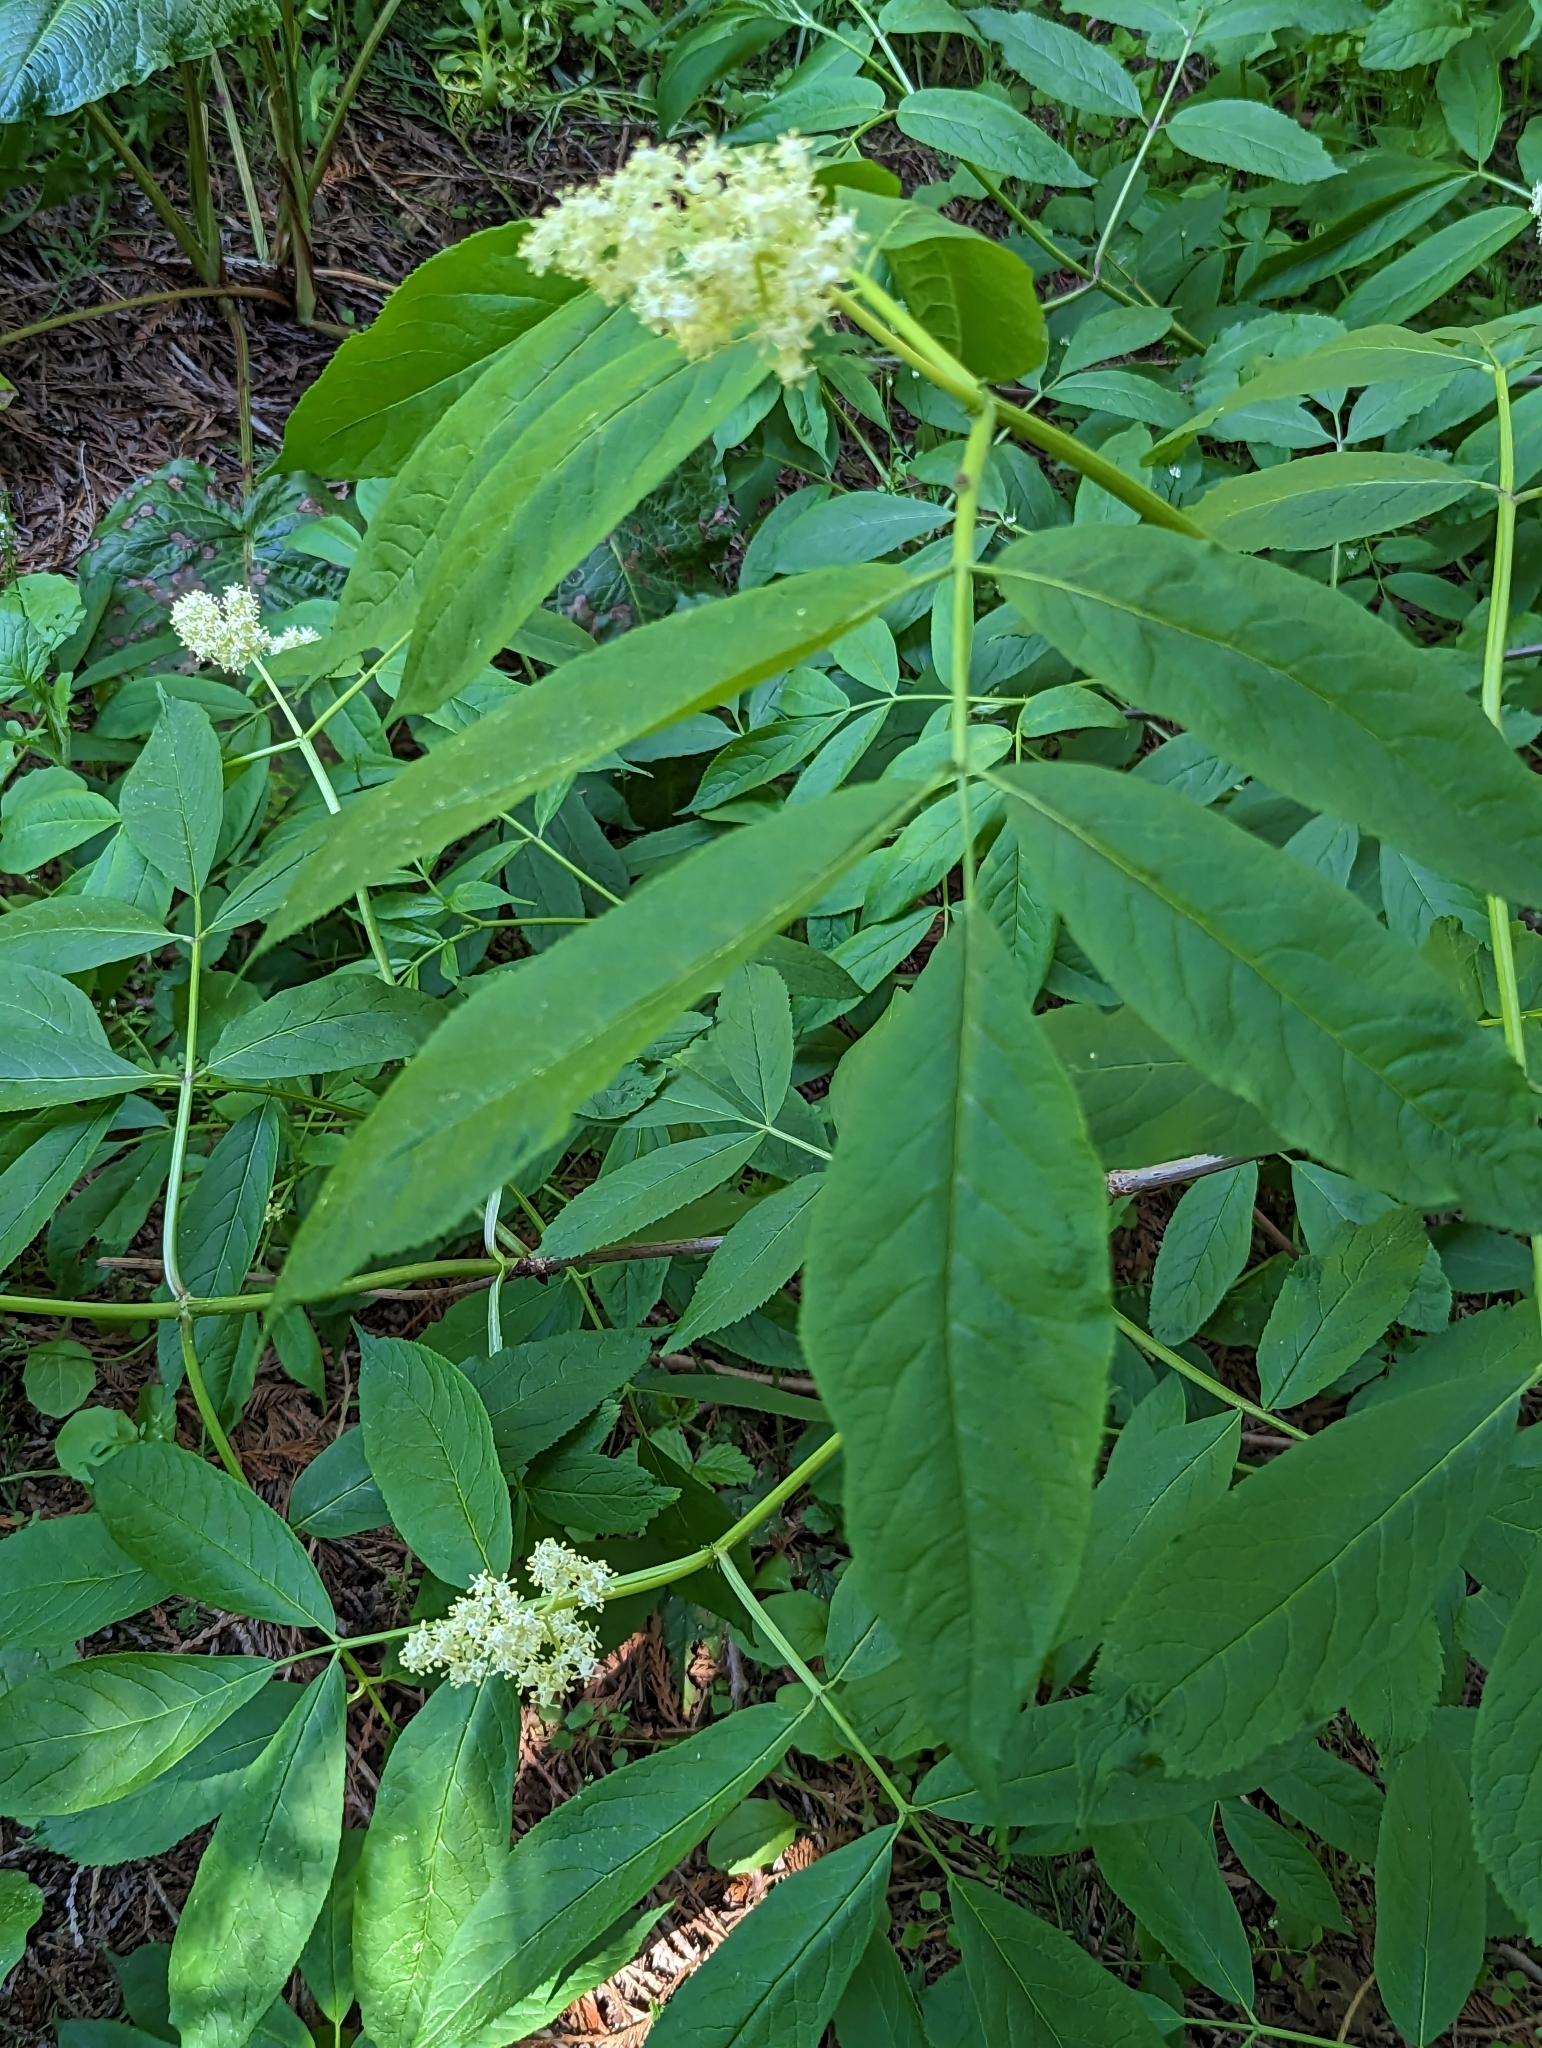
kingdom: Plantae
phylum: Tracheophyta
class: Magnoliopsida
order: Dipsacales
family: Viburnaceae
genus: Sambucus
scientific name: Sambucus racemosa
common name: Red-berried elder
